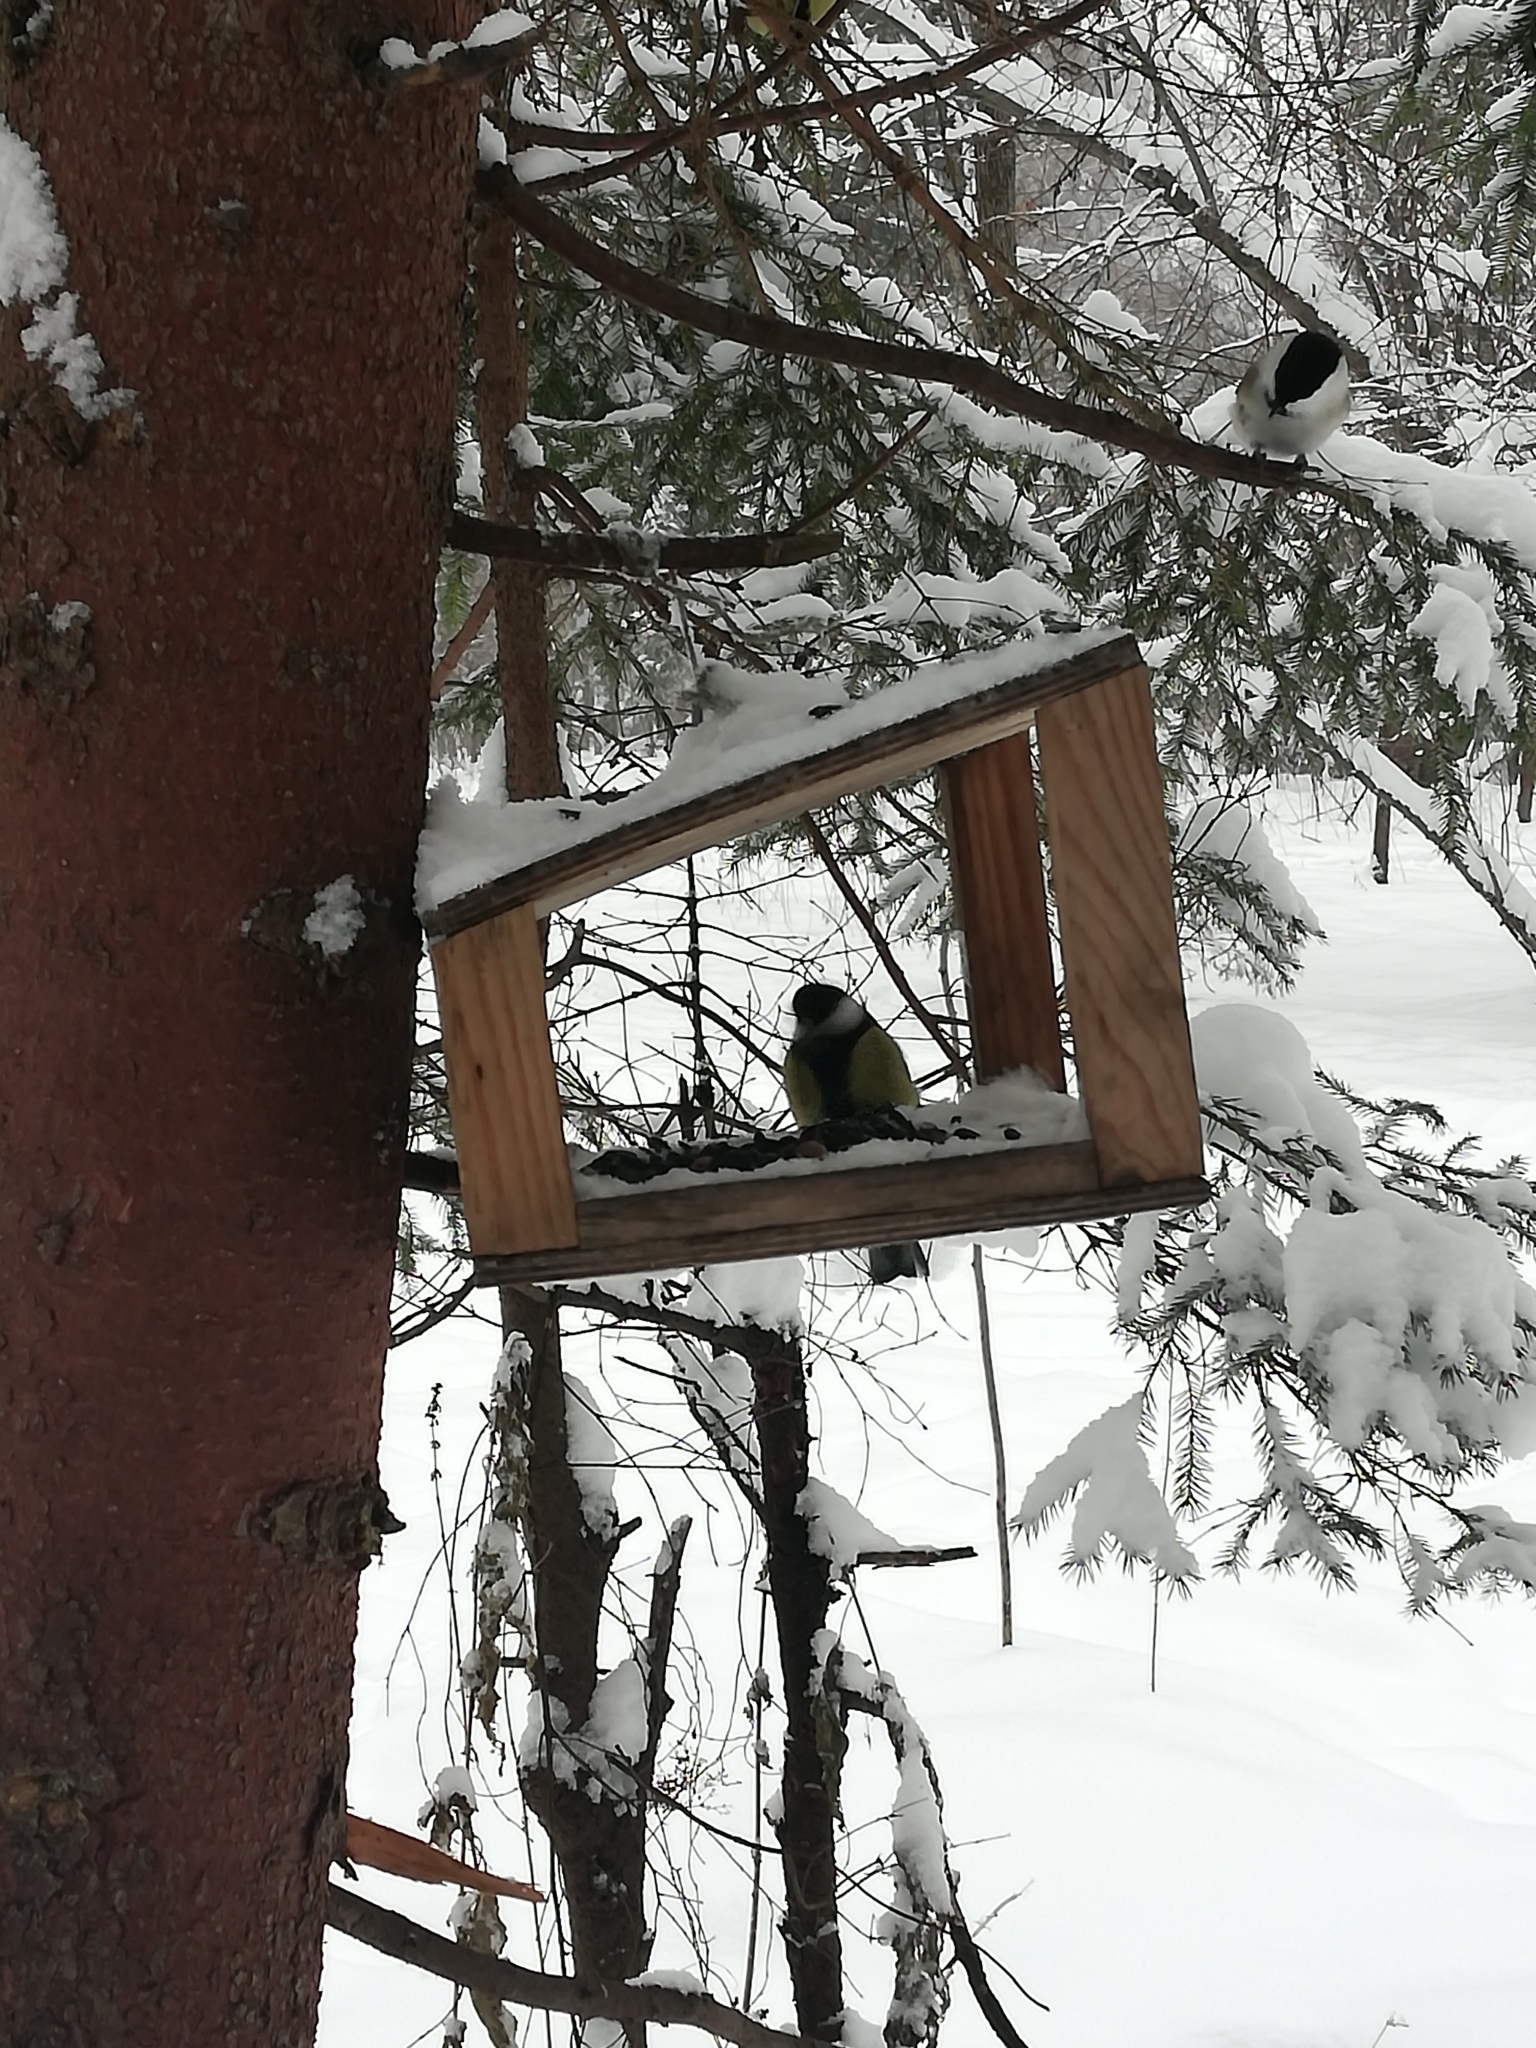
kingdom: Animalia
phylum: Chordata
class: Aves
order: Passeriformes
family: Paridae
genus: Poecile
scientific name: Poecile montanus
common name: Willow tit
